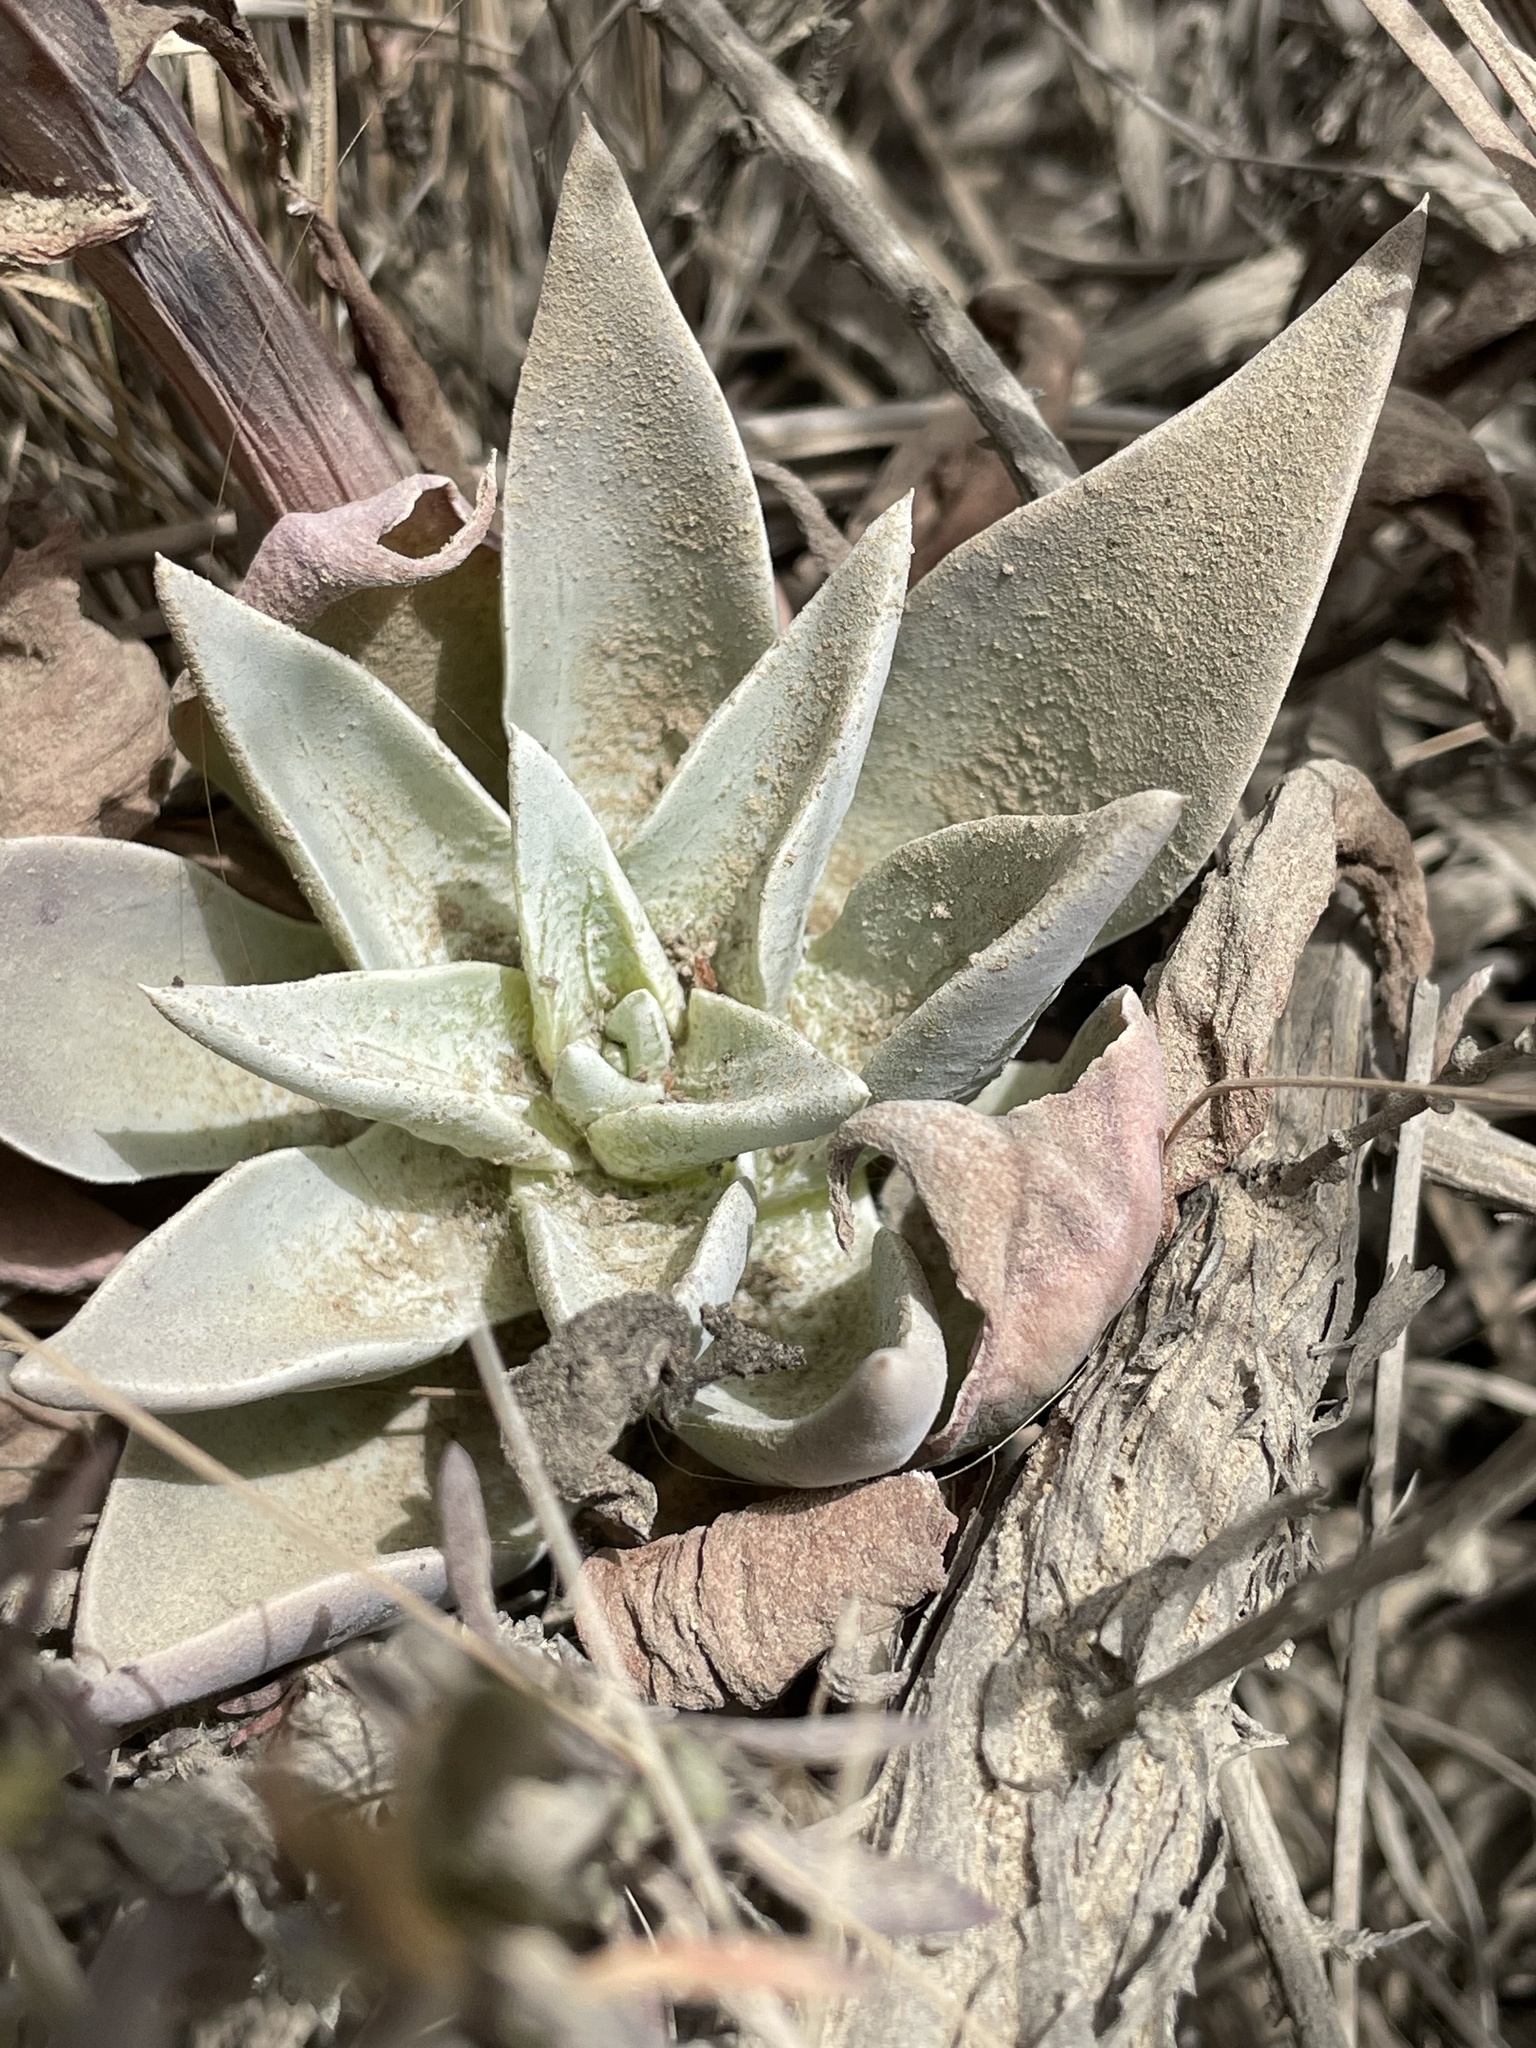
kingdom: Plantae
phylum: Tracheophyta
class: Magnoliopsida
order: Saxifragales
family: Crassulaceae
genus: Dudleya
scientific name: Dudleya lanceolata
